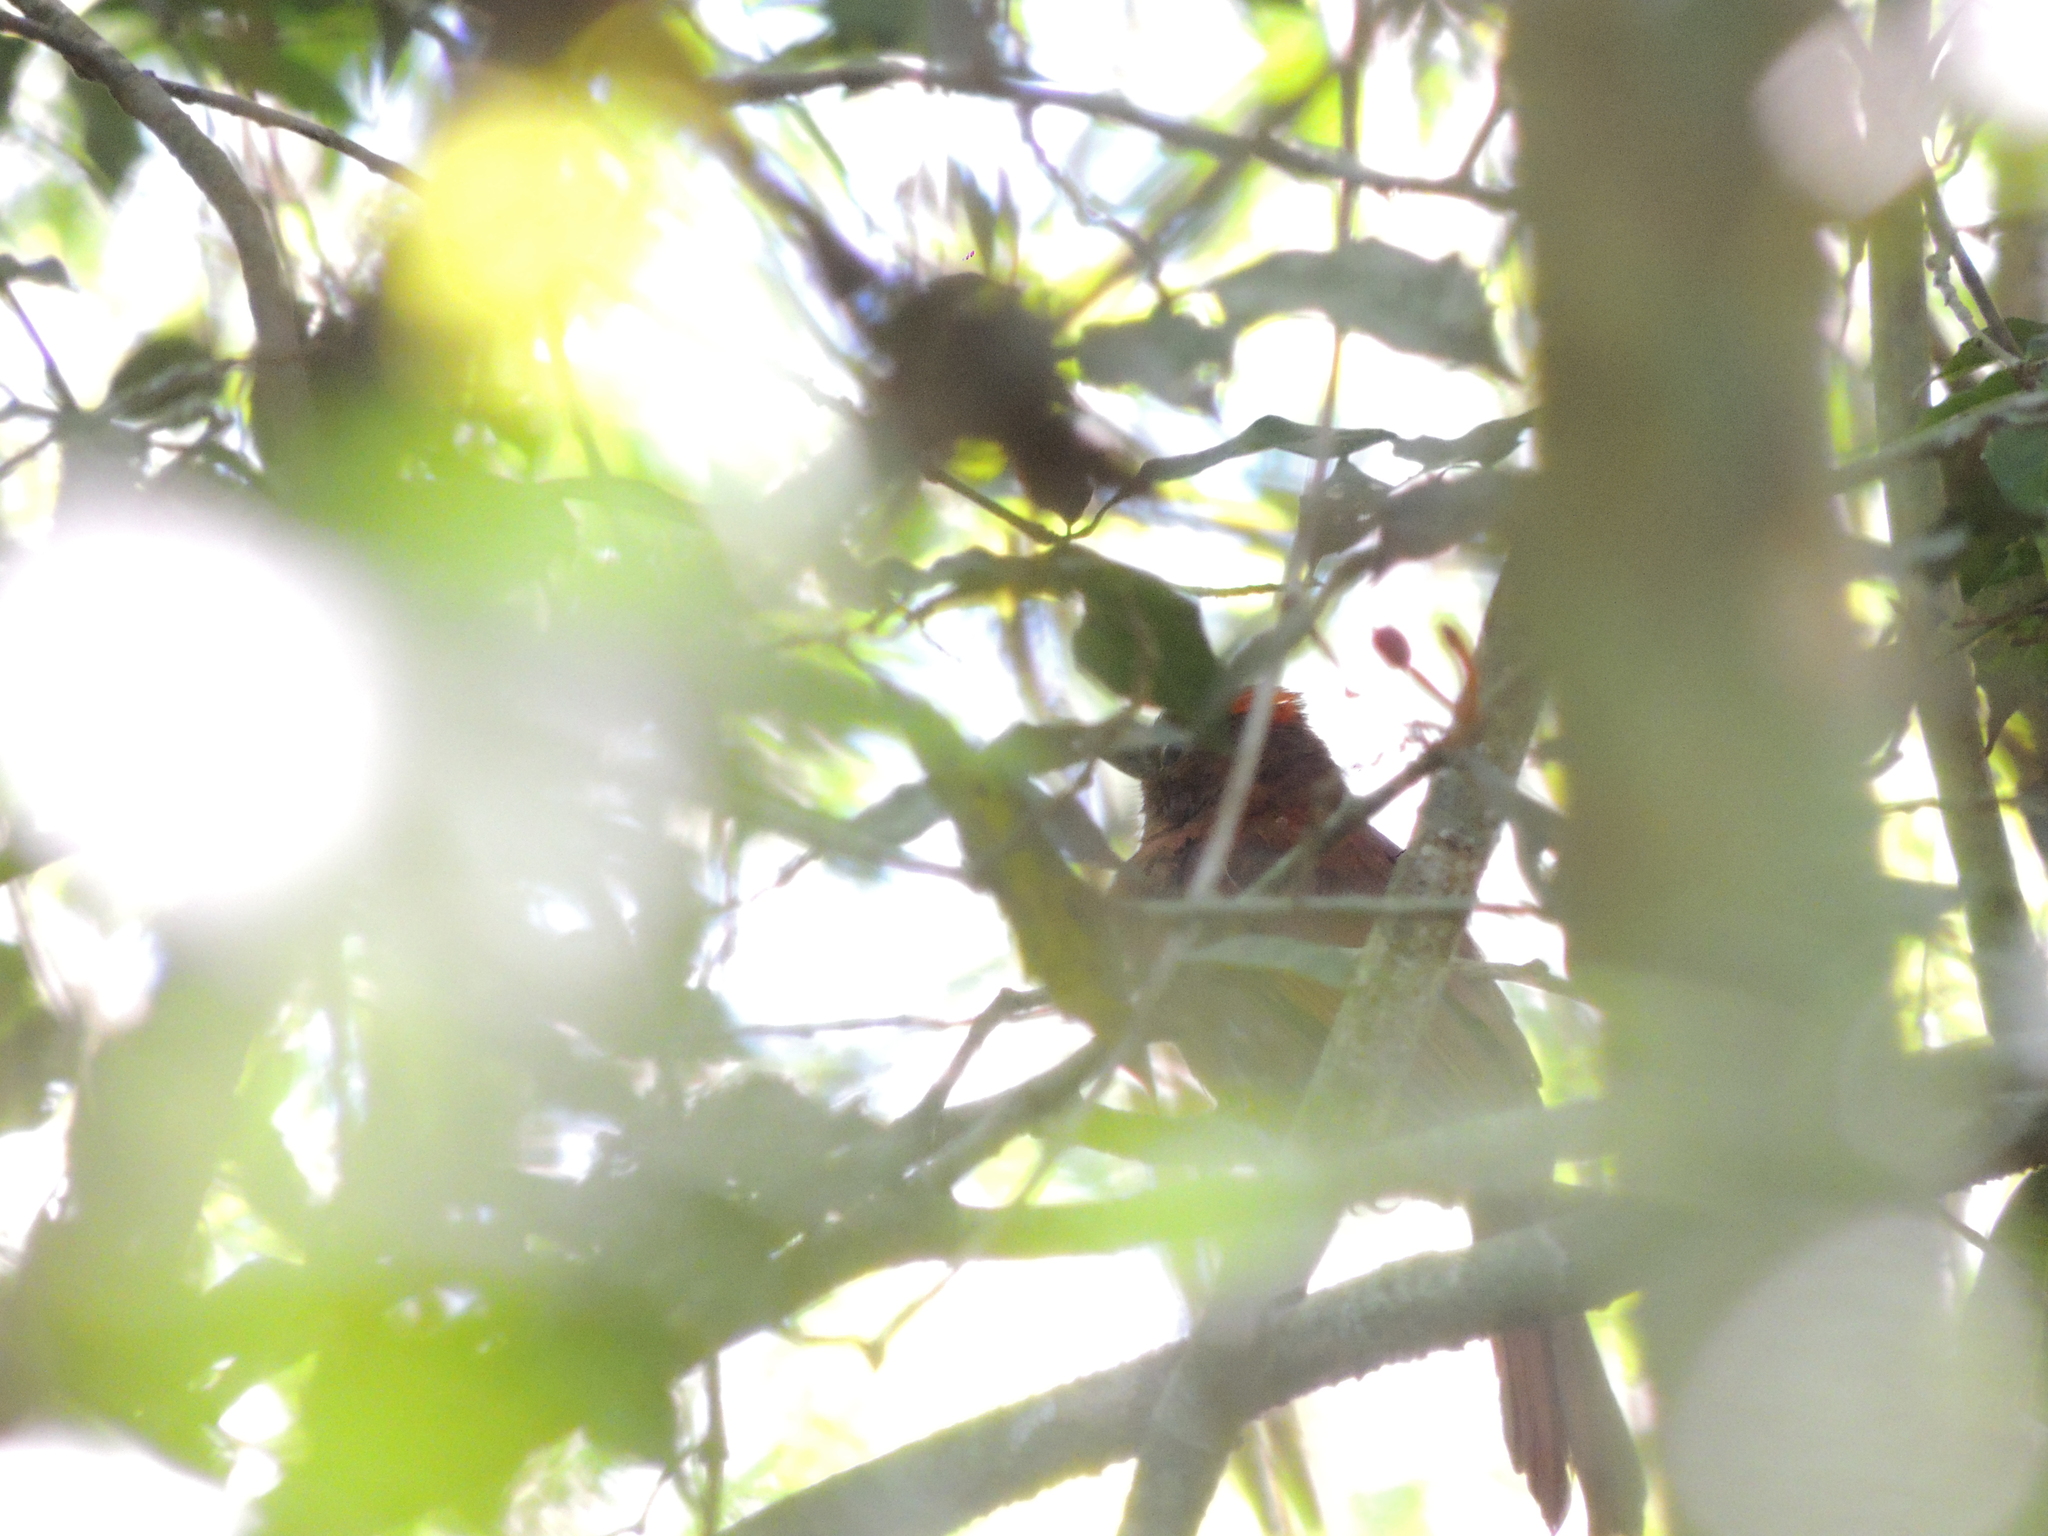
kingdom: Animalia
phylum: Chordata
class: Aves
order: Passeriformes
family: Cardinalidae
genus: Habia
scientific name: Habia rubica
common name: Red-crowned ant-tanager
